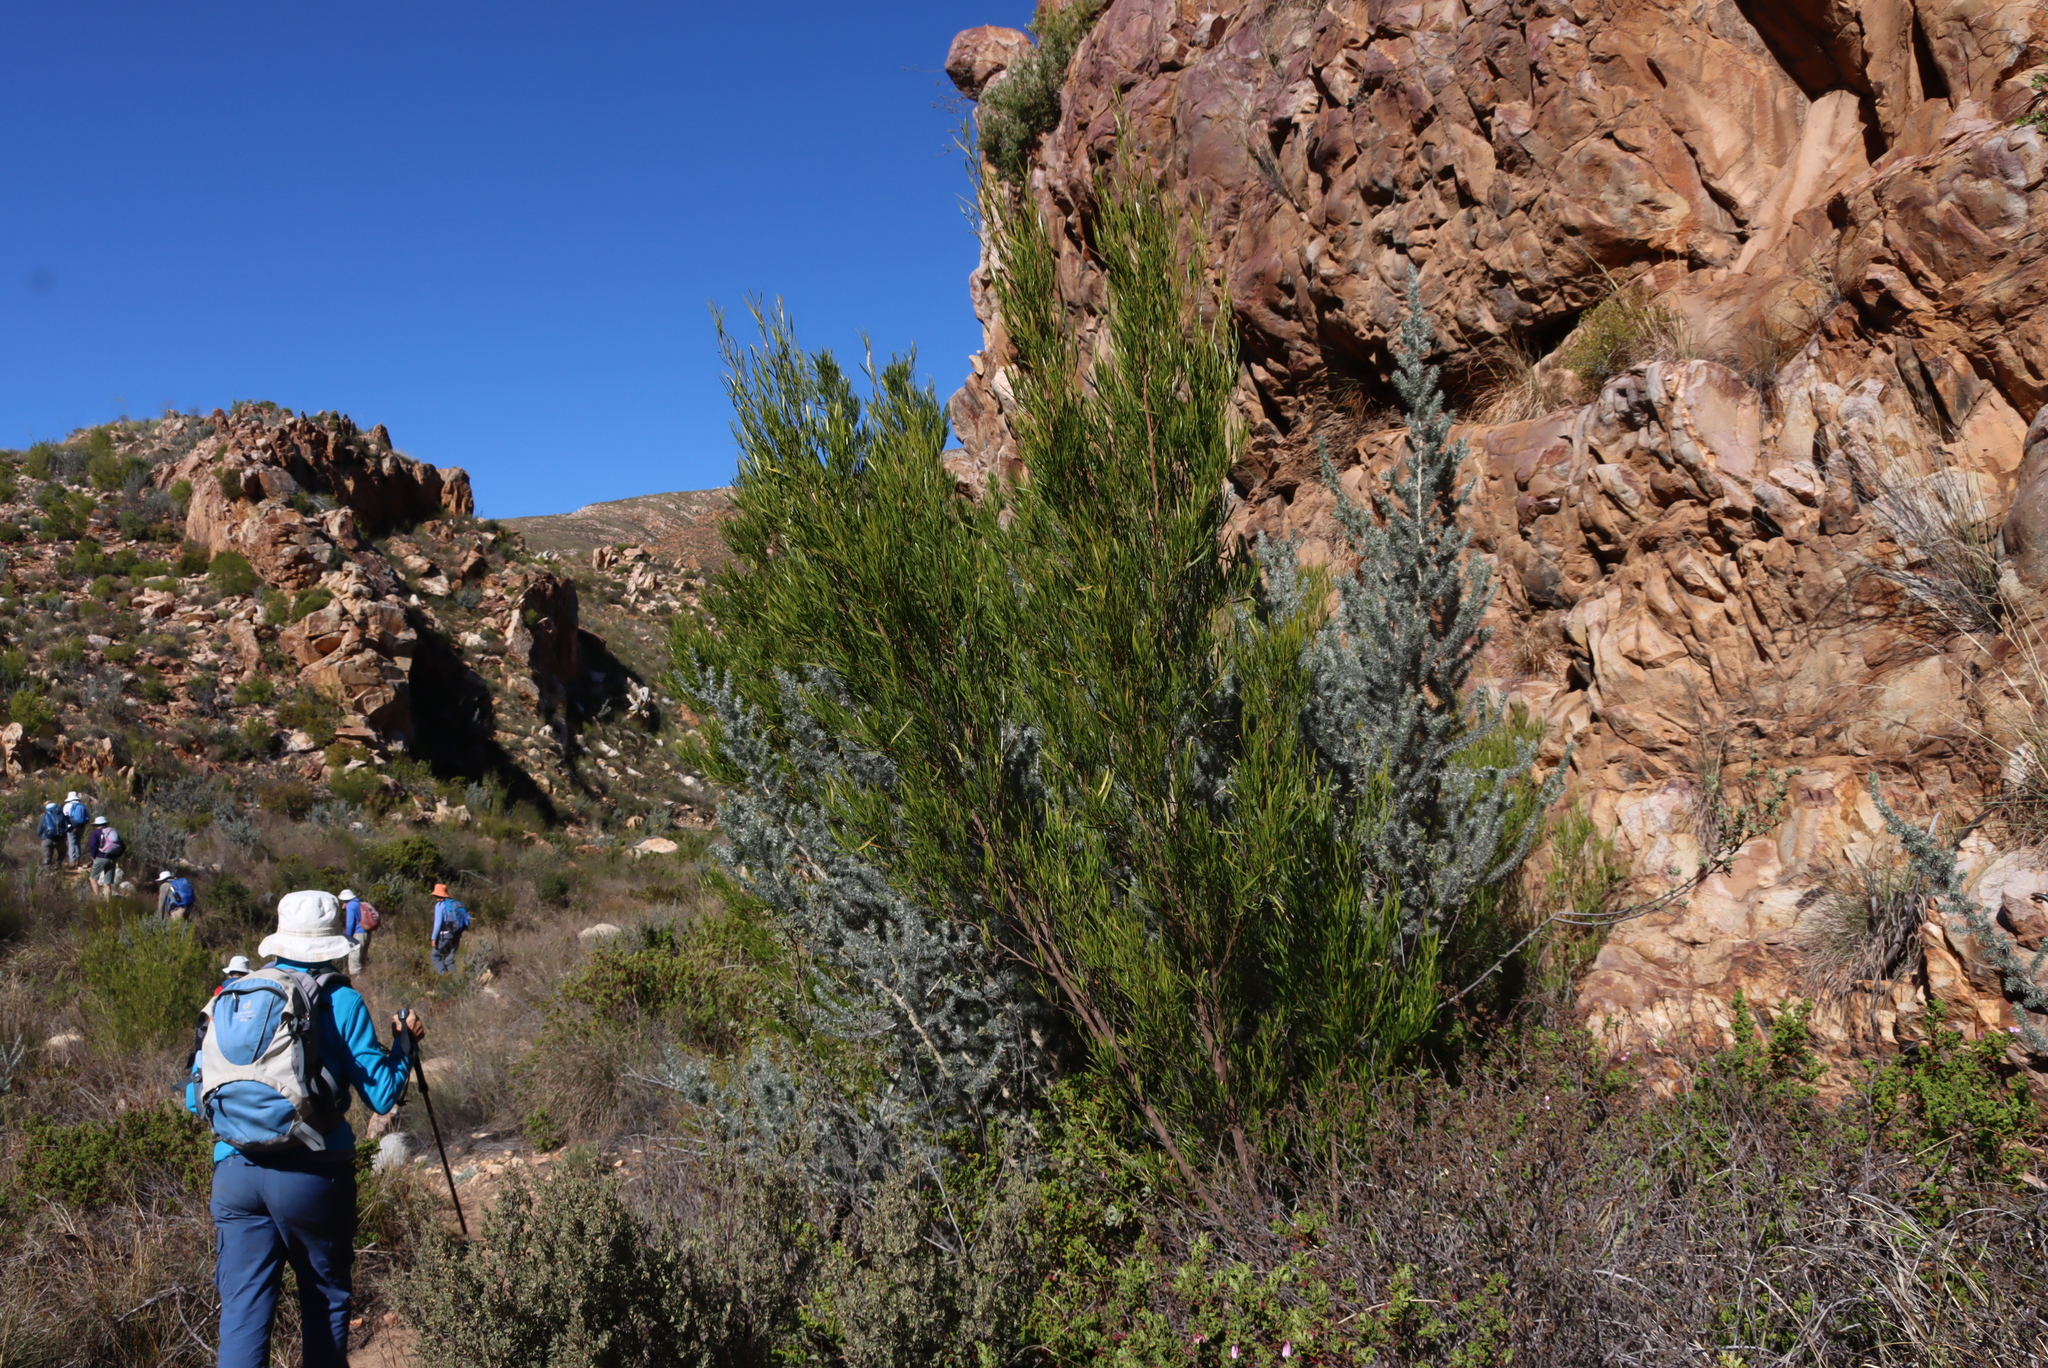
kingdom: Plantae
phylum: Tracheophyta
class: Magnoliopsida
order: Sapindales
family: Sapindaceae
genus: Dodonaea
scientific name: Dodonaea viscosa
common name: Hopbush
